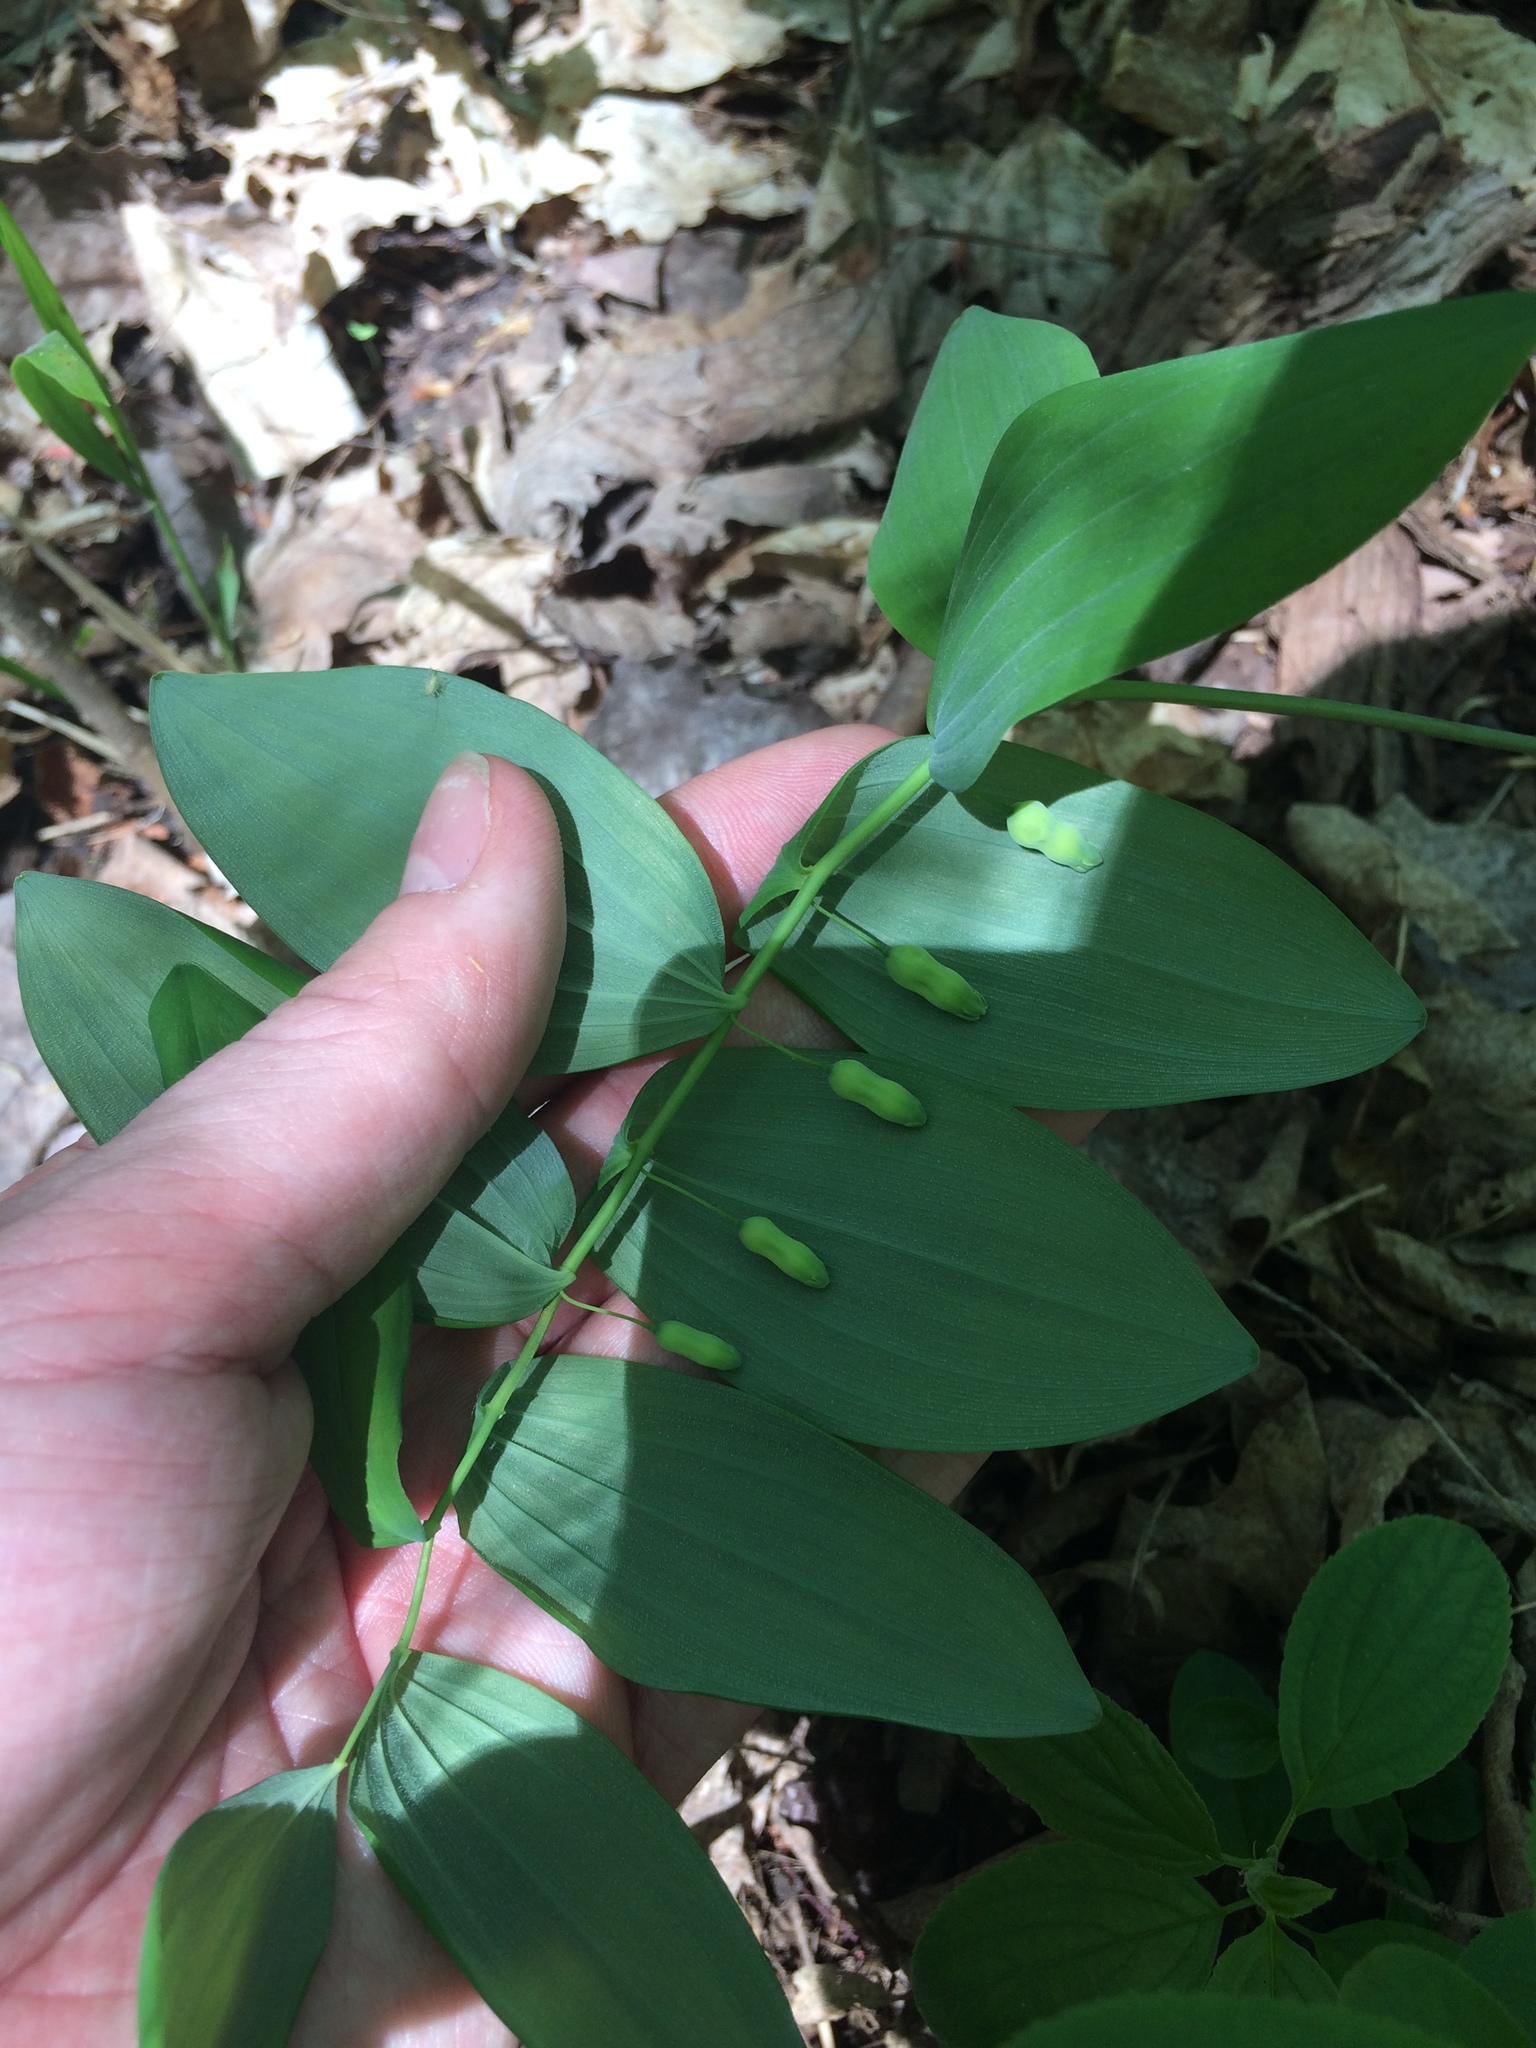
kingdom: Plantae
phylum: Tracheophyta
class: Liliopsida
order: Asparagales
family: Asparagaceae
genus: Polygonatum
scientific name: Polygonatum pubescens
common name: Downy solomon's seal
